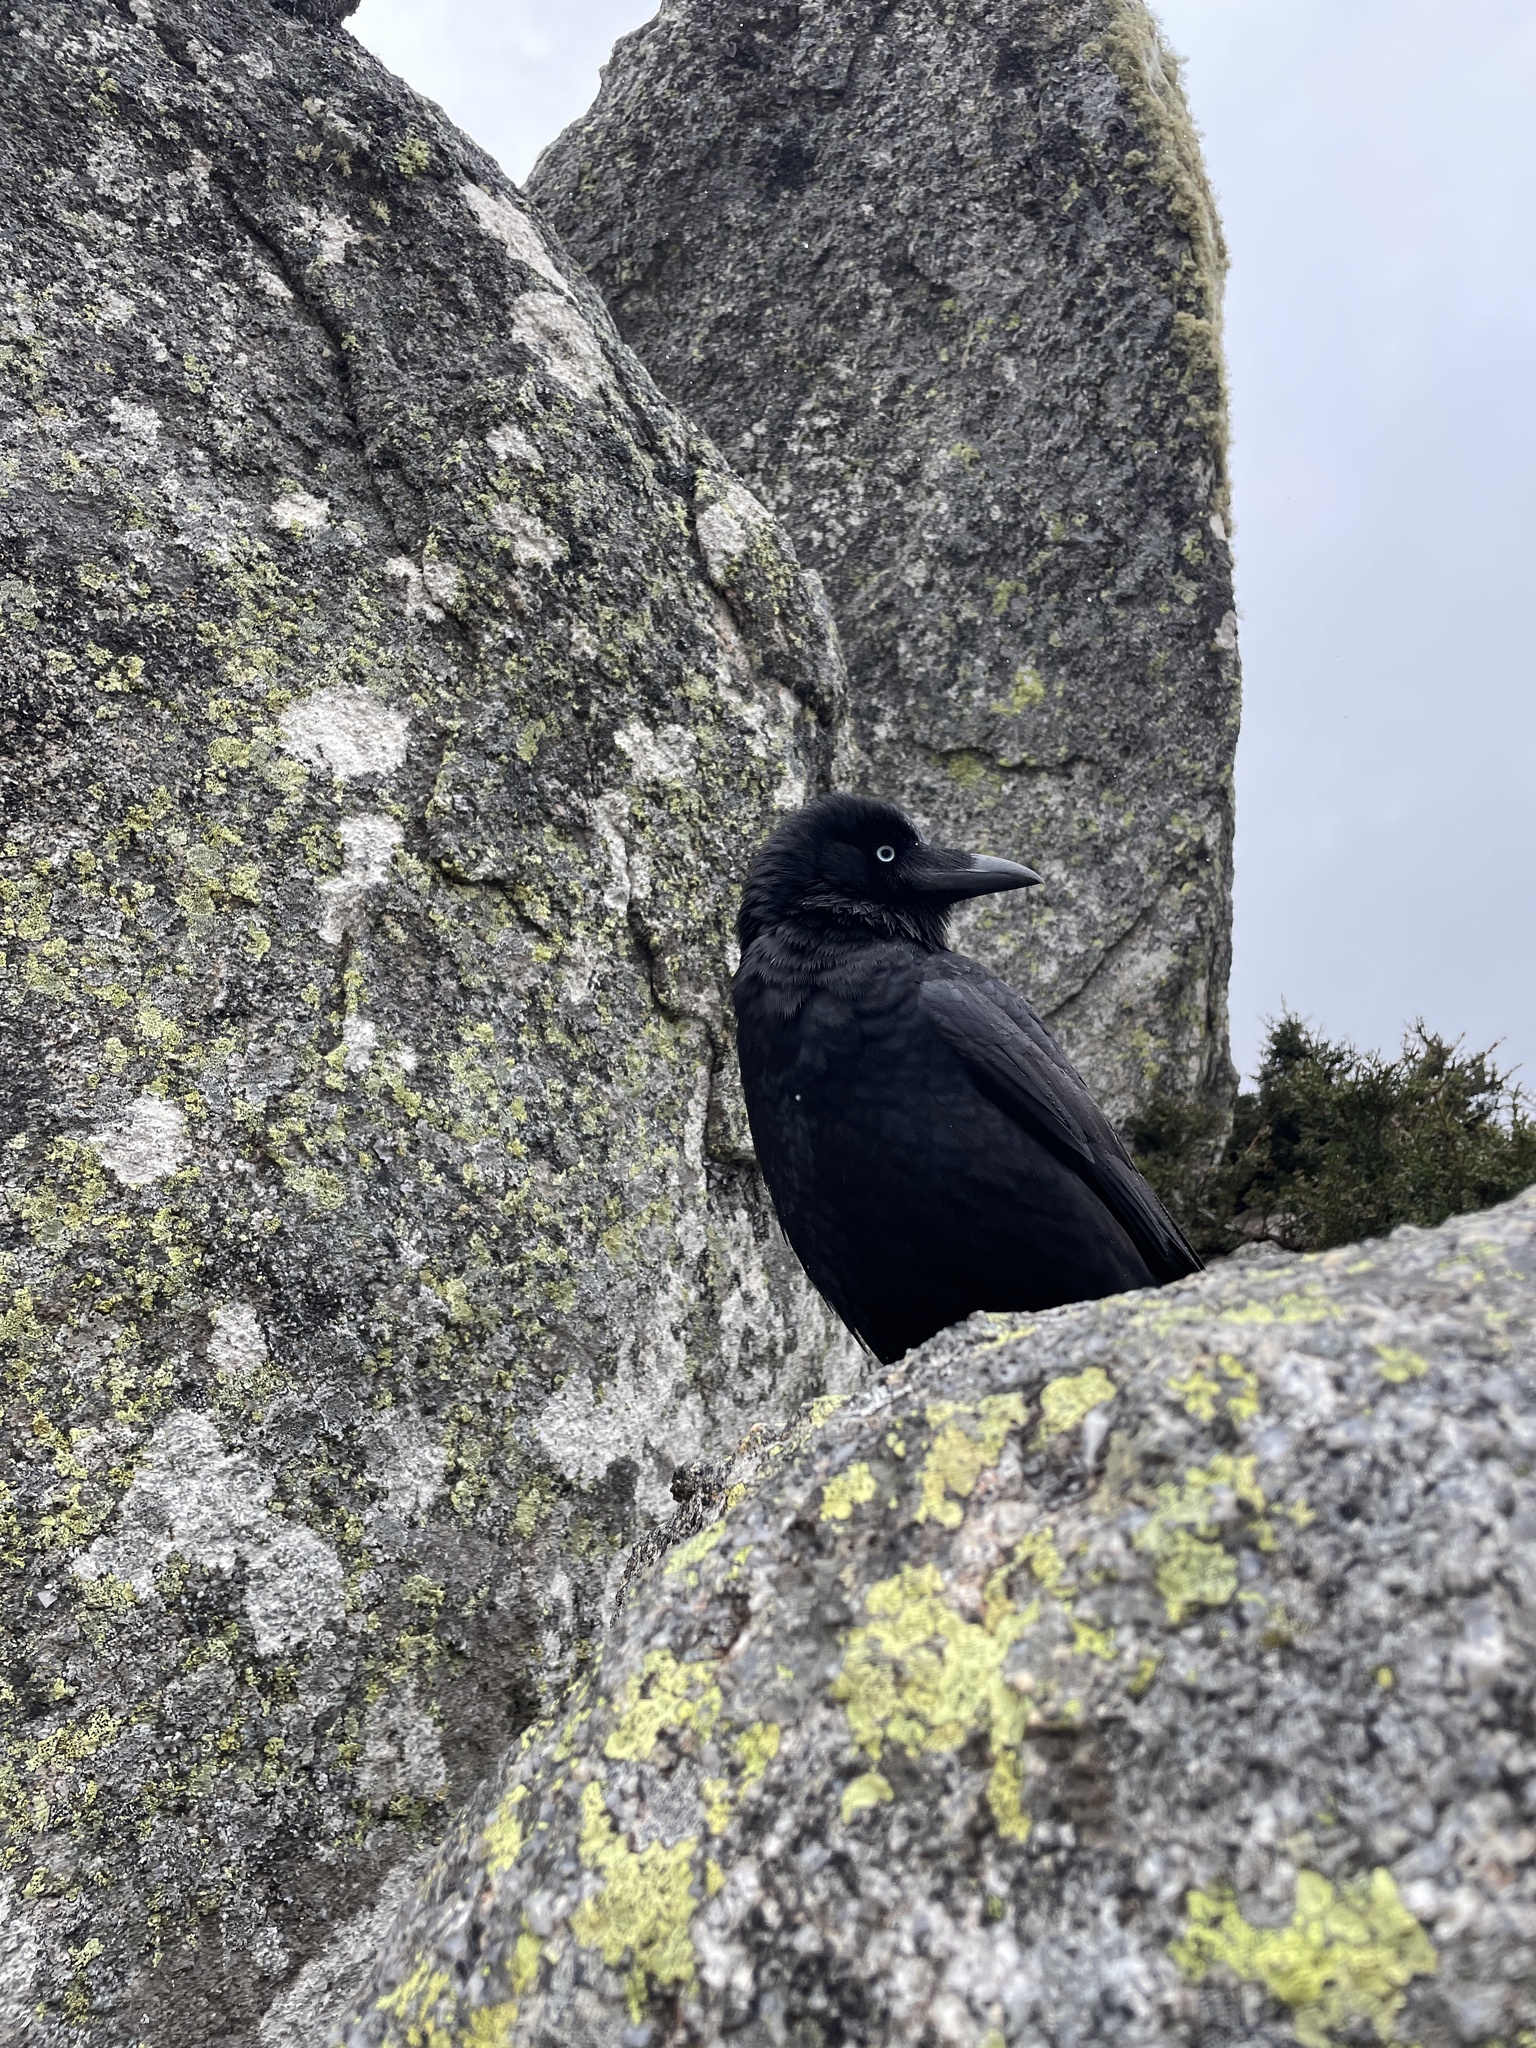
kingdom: Animalia
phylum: Chordata
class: Aves
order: Passeriformes
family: Corvidae
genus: Corvus
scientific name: Corvus mellori
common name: Little raven
